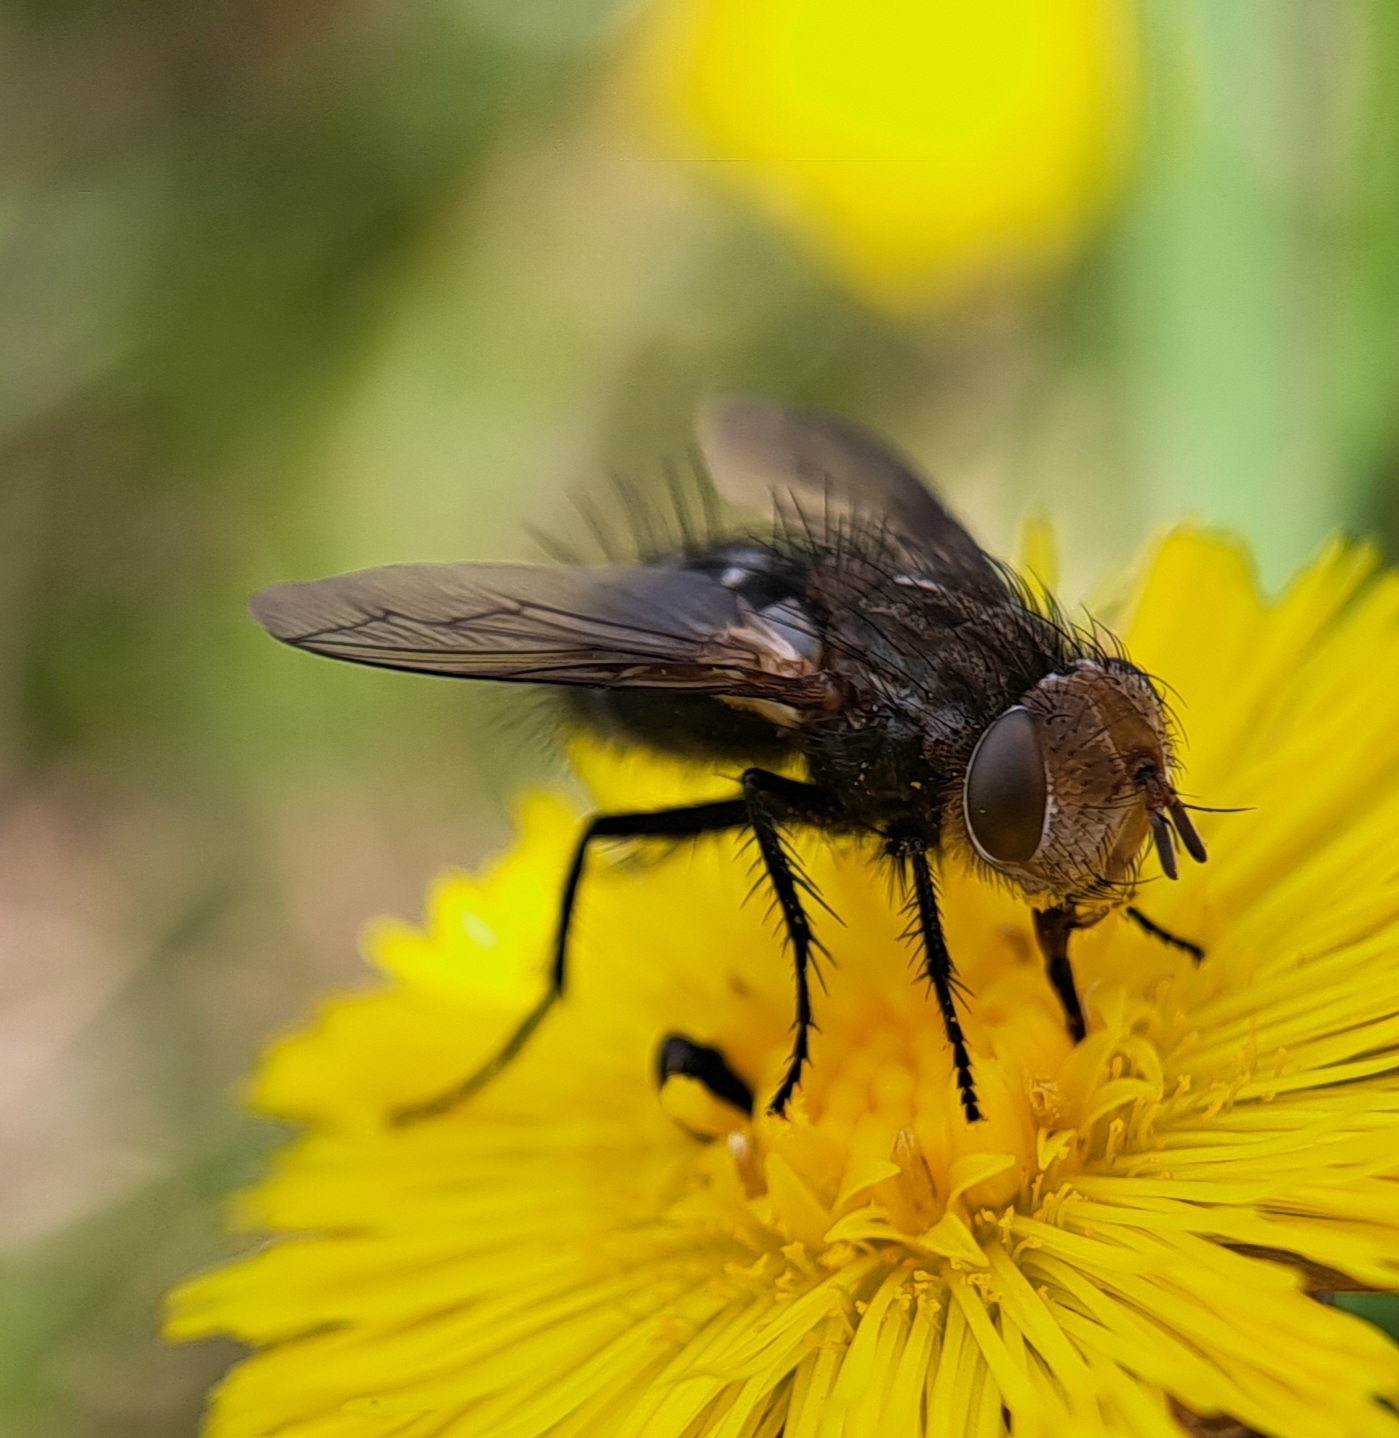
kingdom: Animalia
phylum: Arthropoda
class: Insecta
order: Diptera
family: Tachinidae
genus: Gonia
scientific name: Gonia picea
